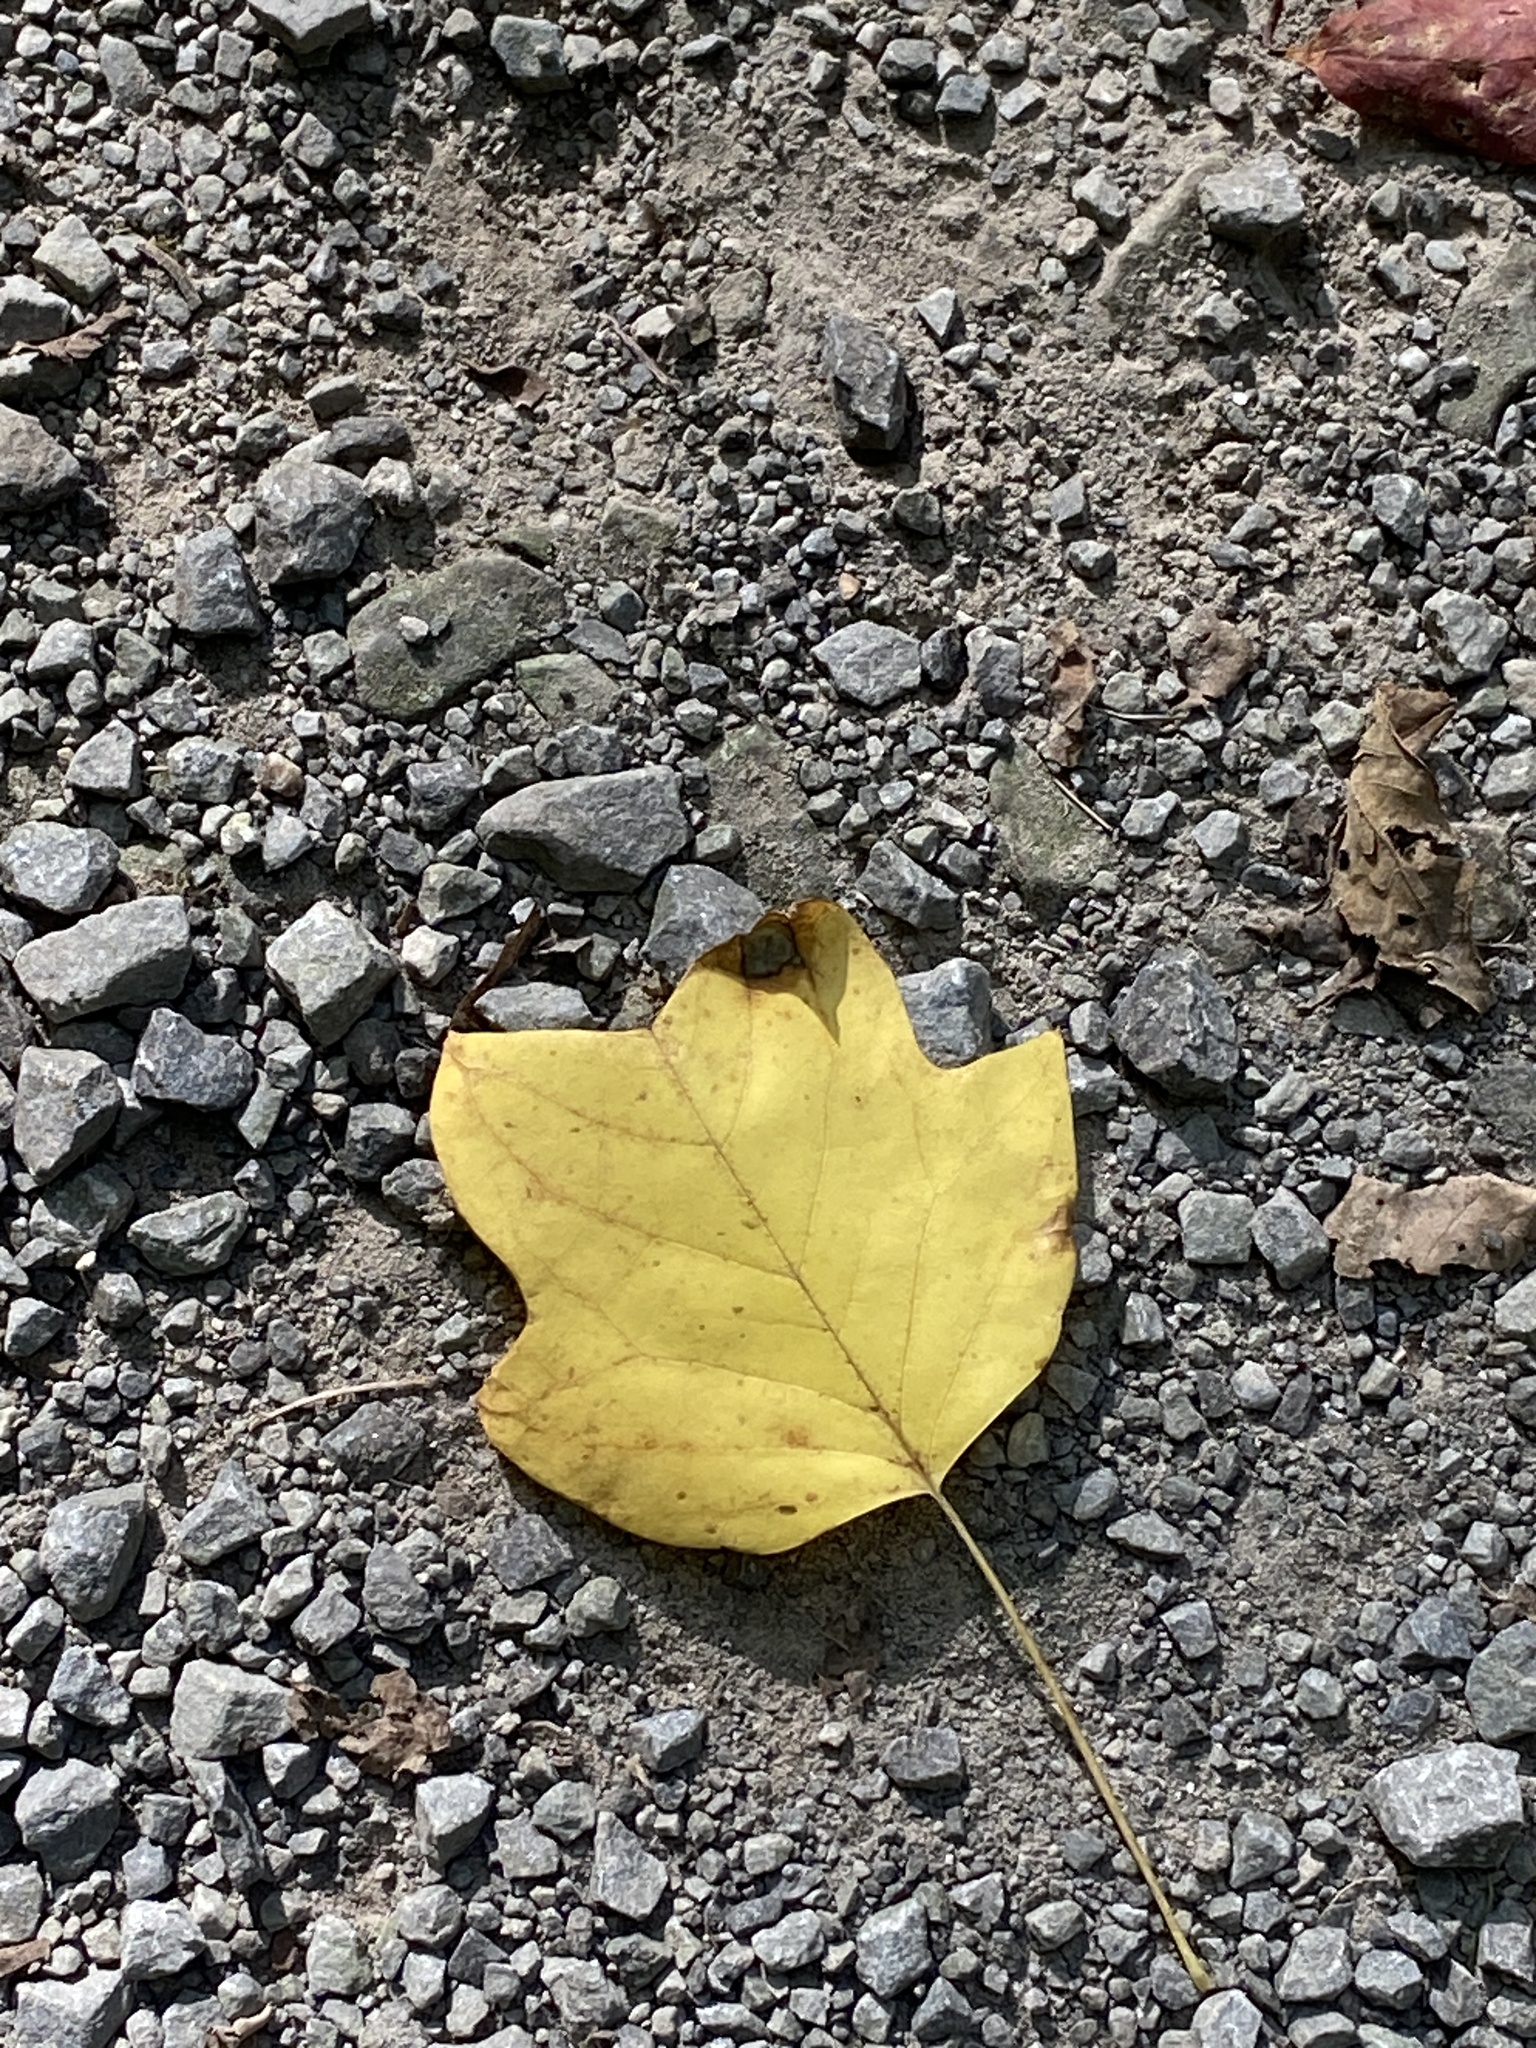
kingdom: Plantae
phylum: Tracheophyta
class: Magnoliopsida
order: Magnoliales
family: Magnoliaceae
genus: Liriodendron
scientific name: Liriodendron tulipifera
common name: Tulip tree
